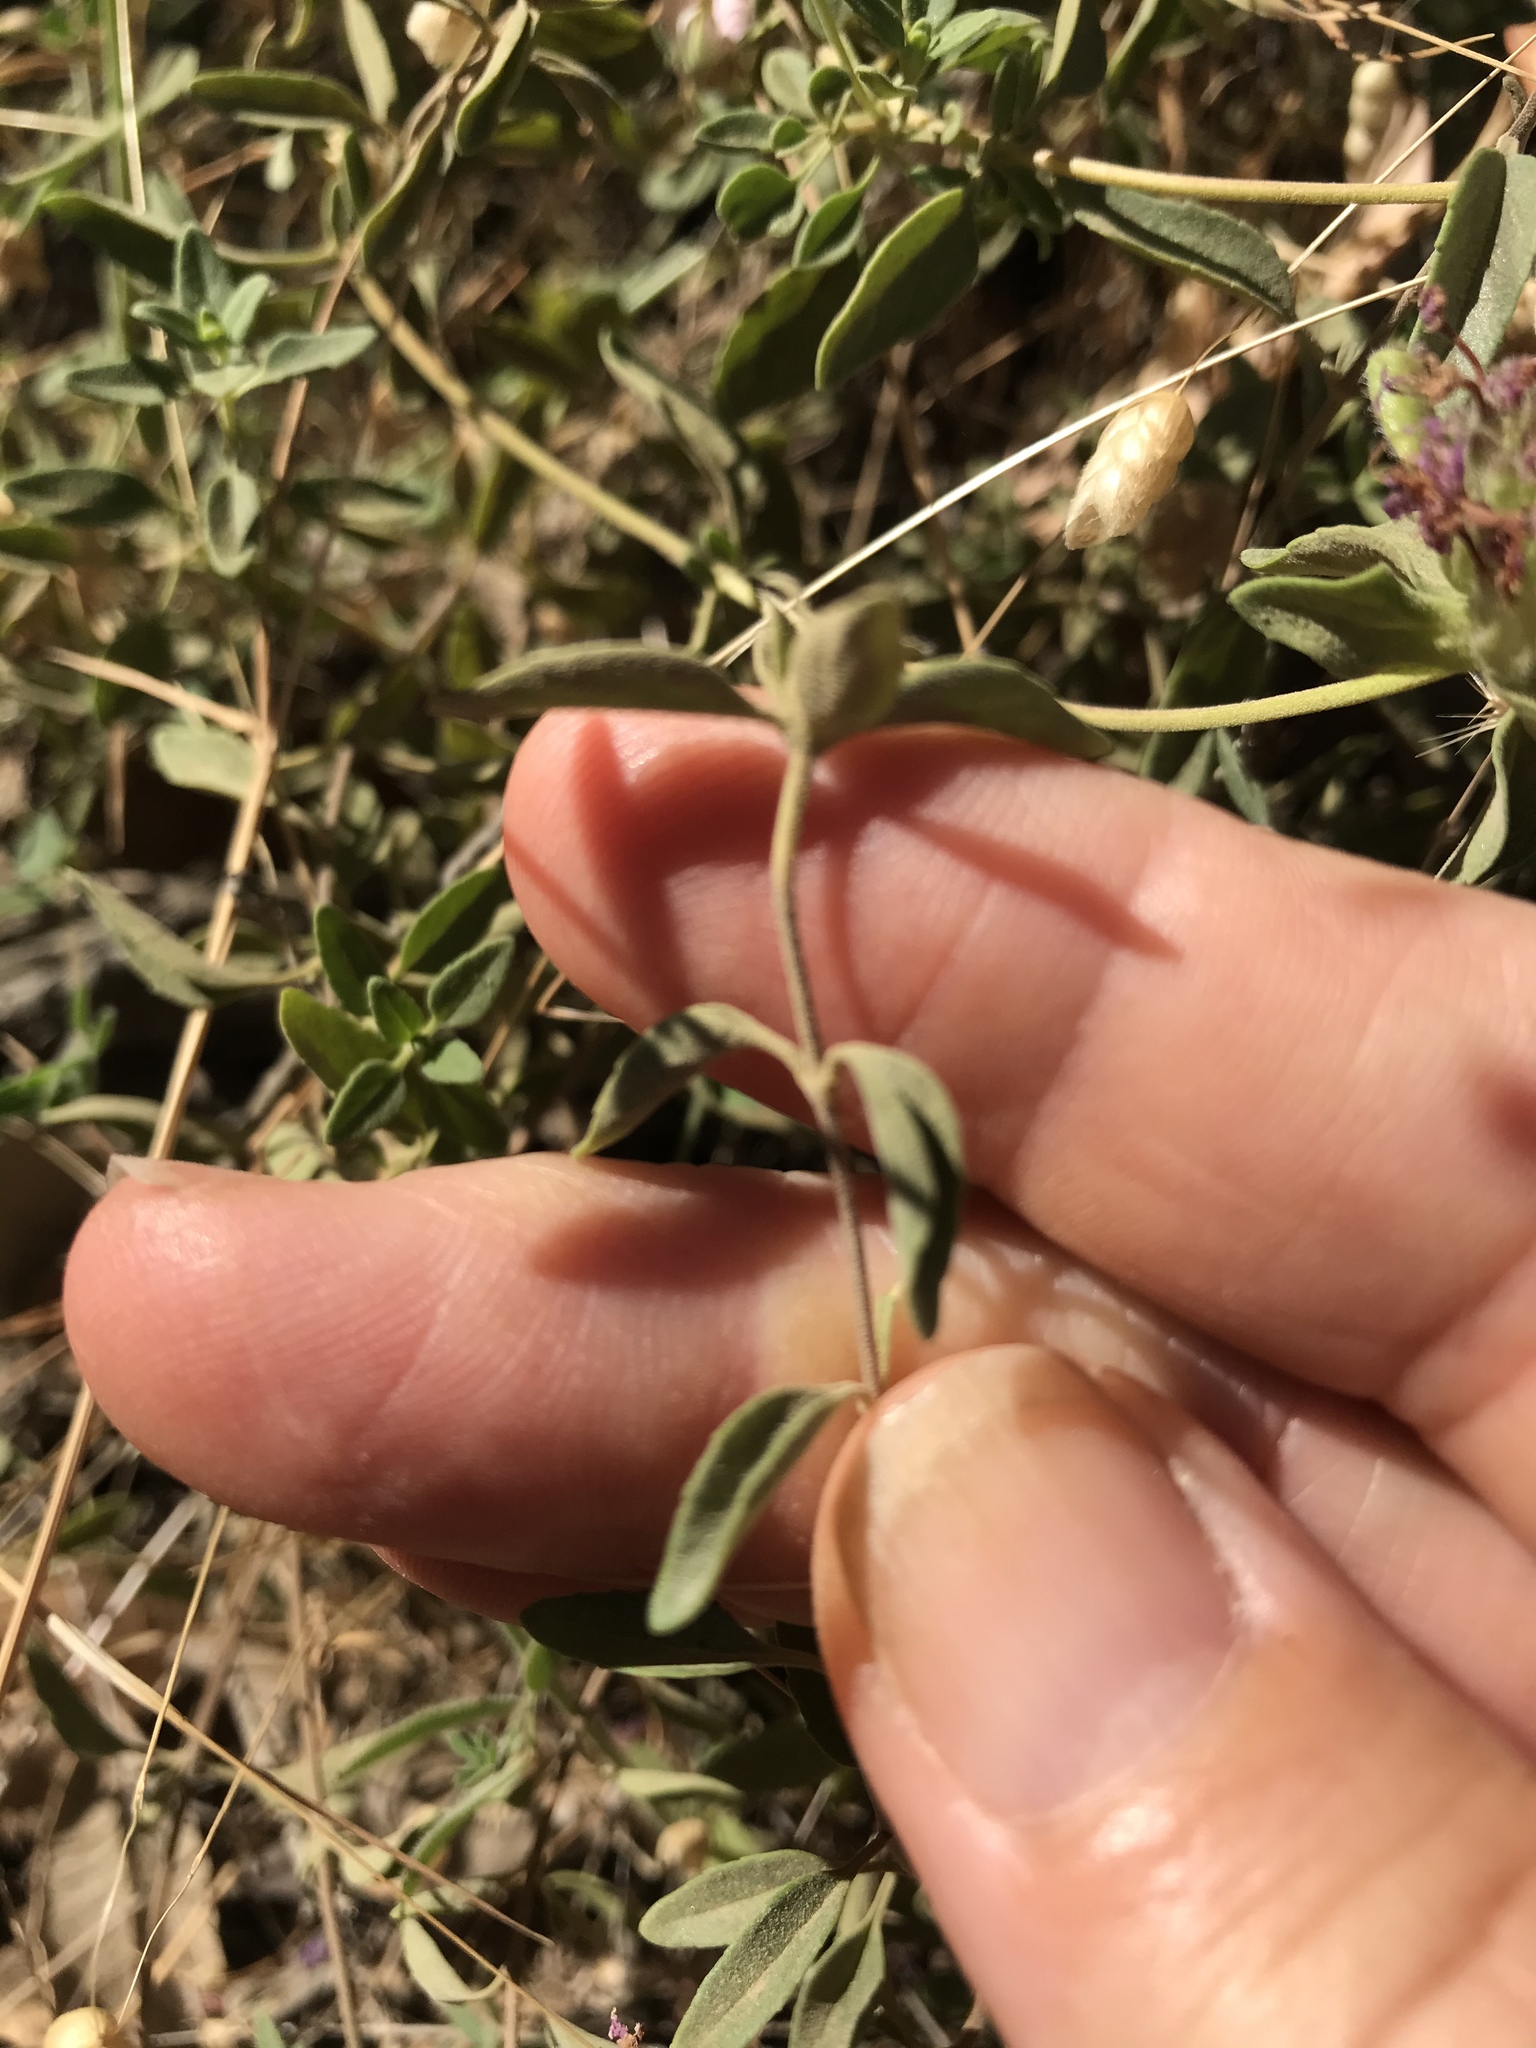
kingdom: Plantae
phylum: Tracheophyta
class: Magnoliopsida
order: Lamiales
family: Lamiaceae
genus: Monardella
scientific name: Monardella odoratissima
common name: Pacific monardella
